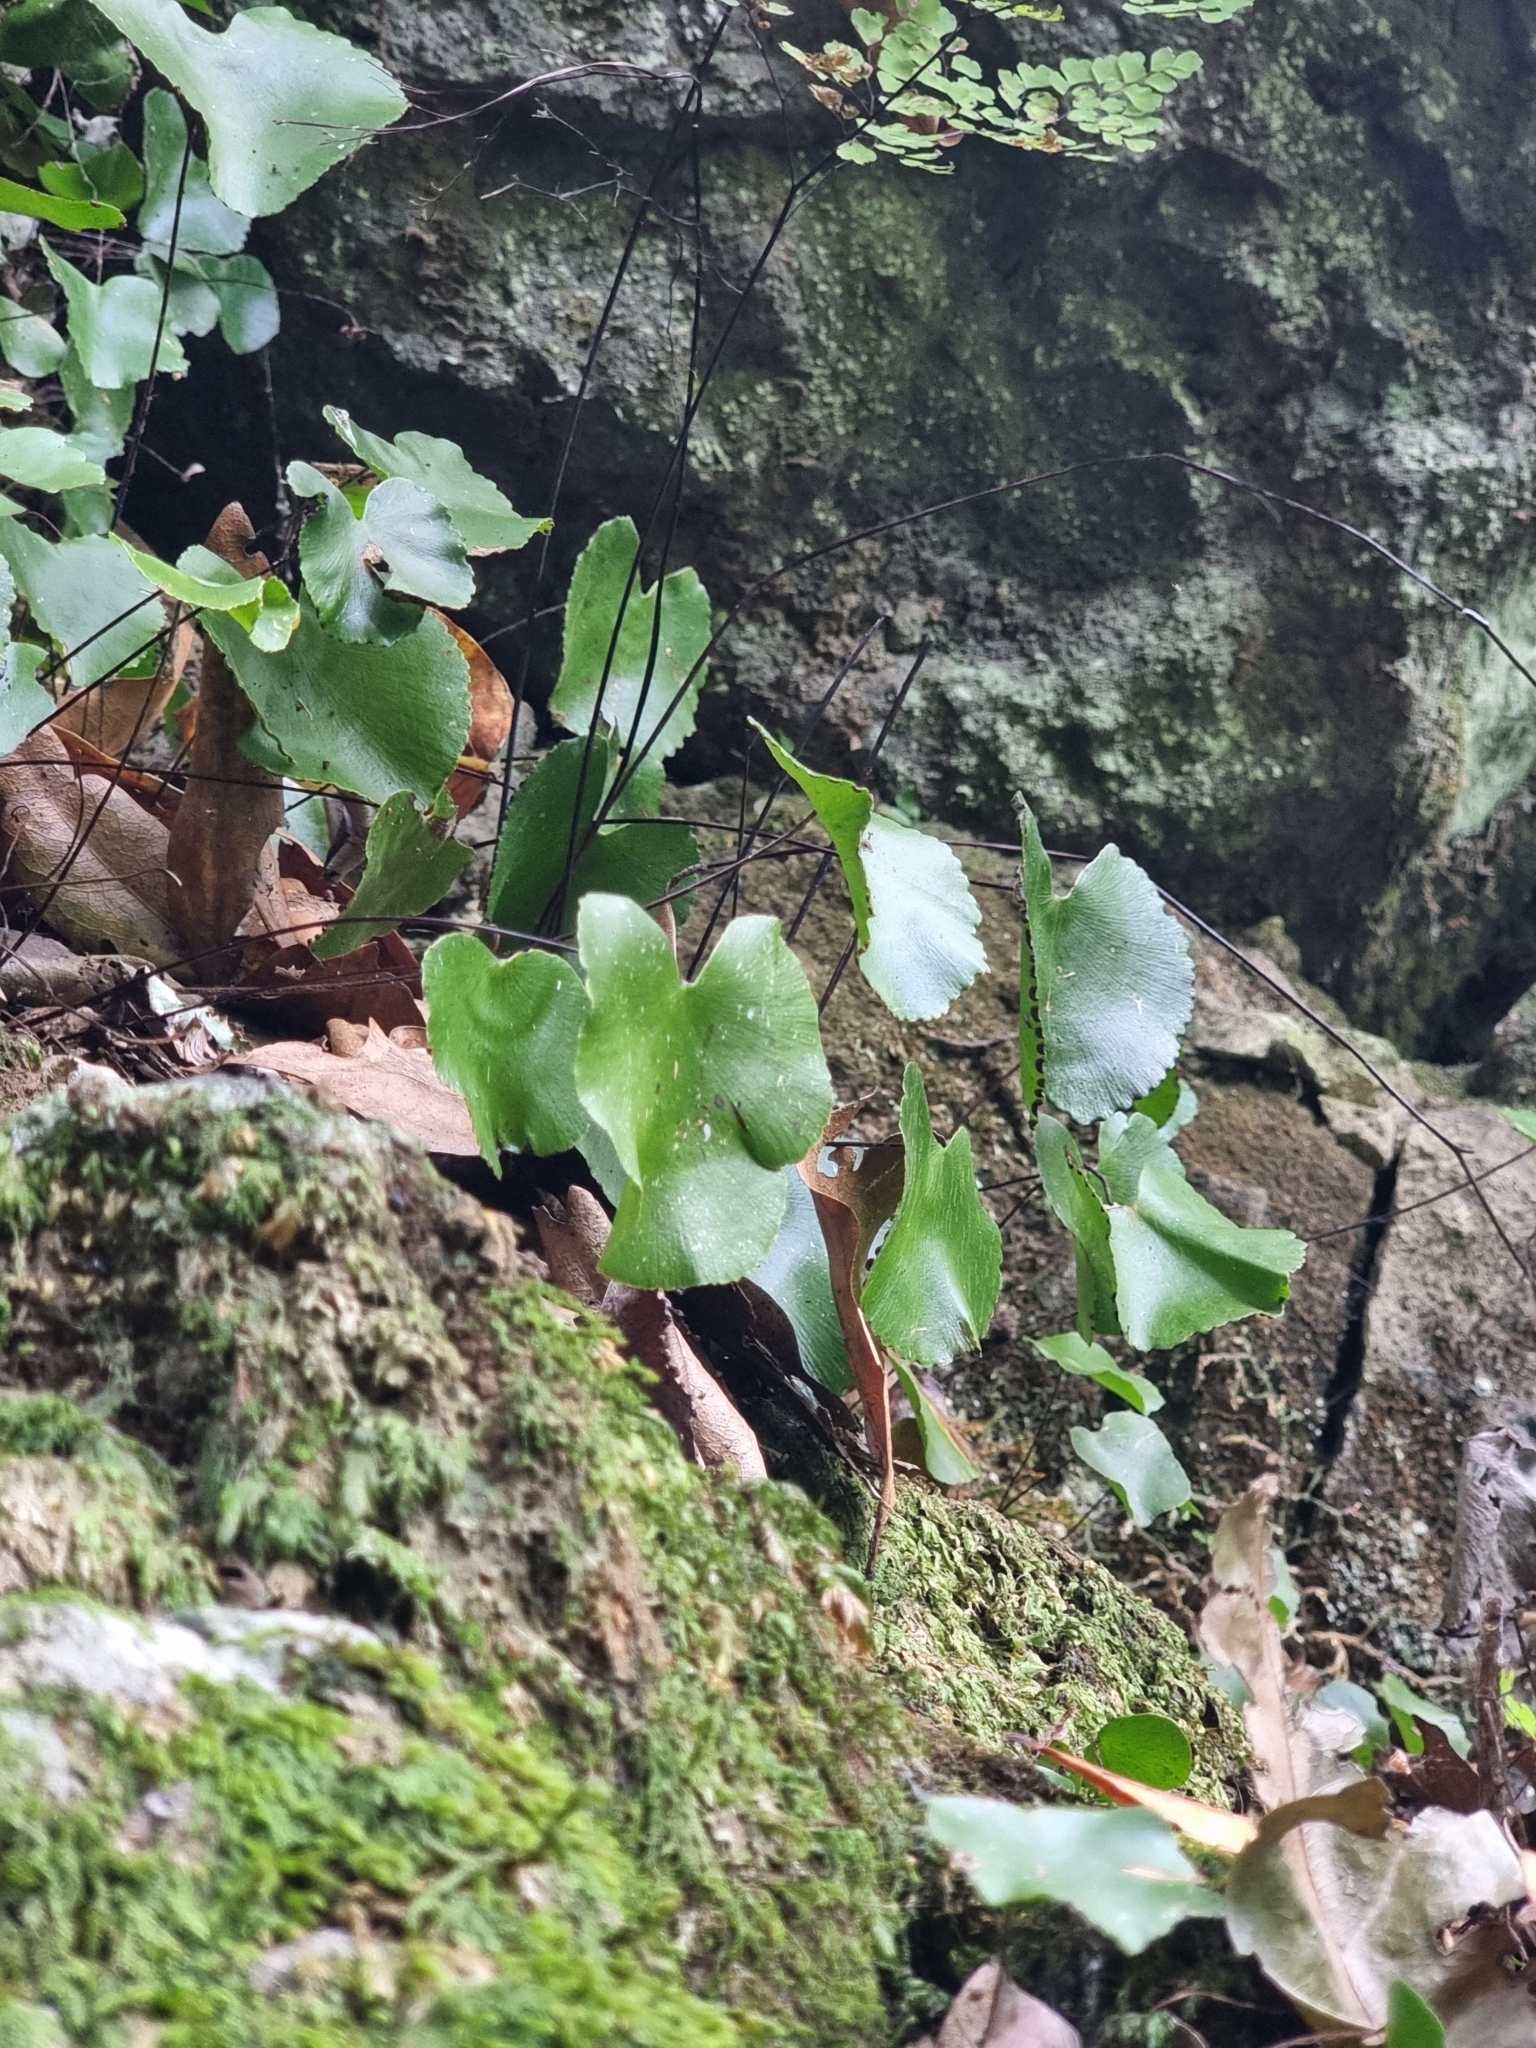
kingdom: Plantae
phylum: Tracheophyta
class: Polypodiopsida
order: Polypodiales
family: Pteridaceae
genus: Adiantum
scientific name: Adiantum reniforme
